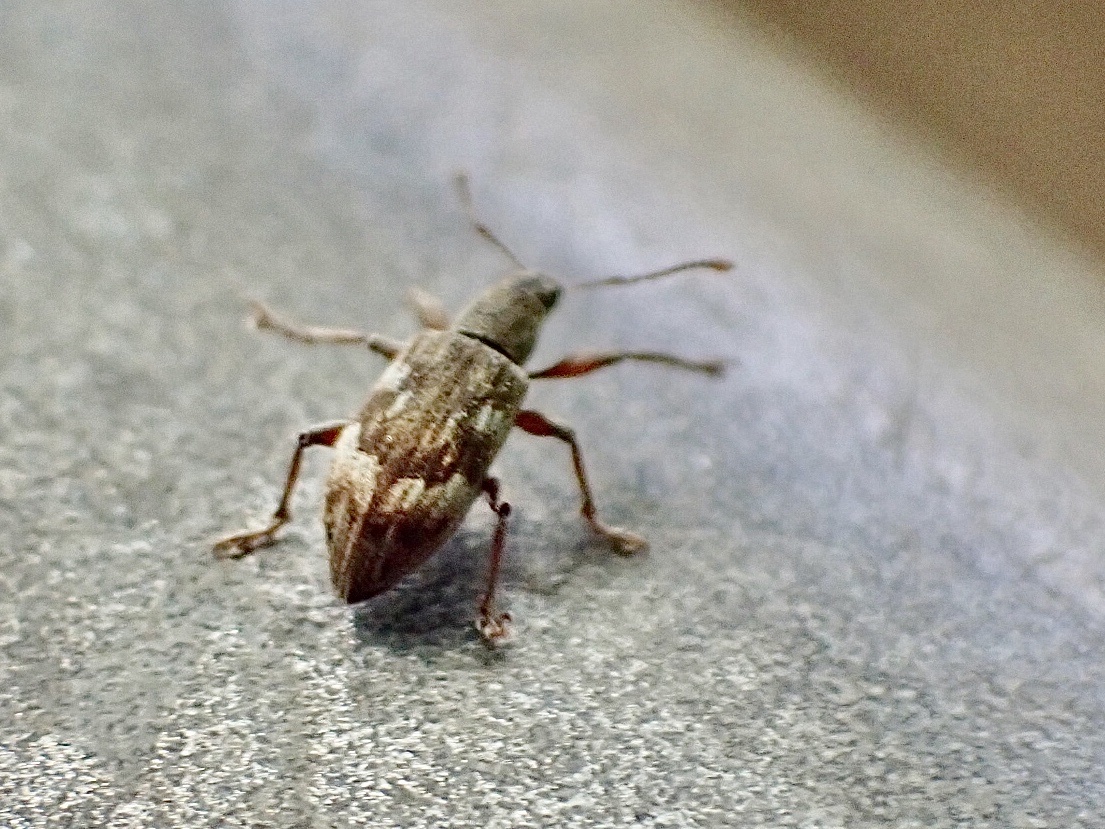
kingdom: Animalia
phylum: Arthropoda
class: Insecta
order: Coleoptera
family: Curculionidae
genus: Polydrusus
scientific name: Polydrusus tereticollis
